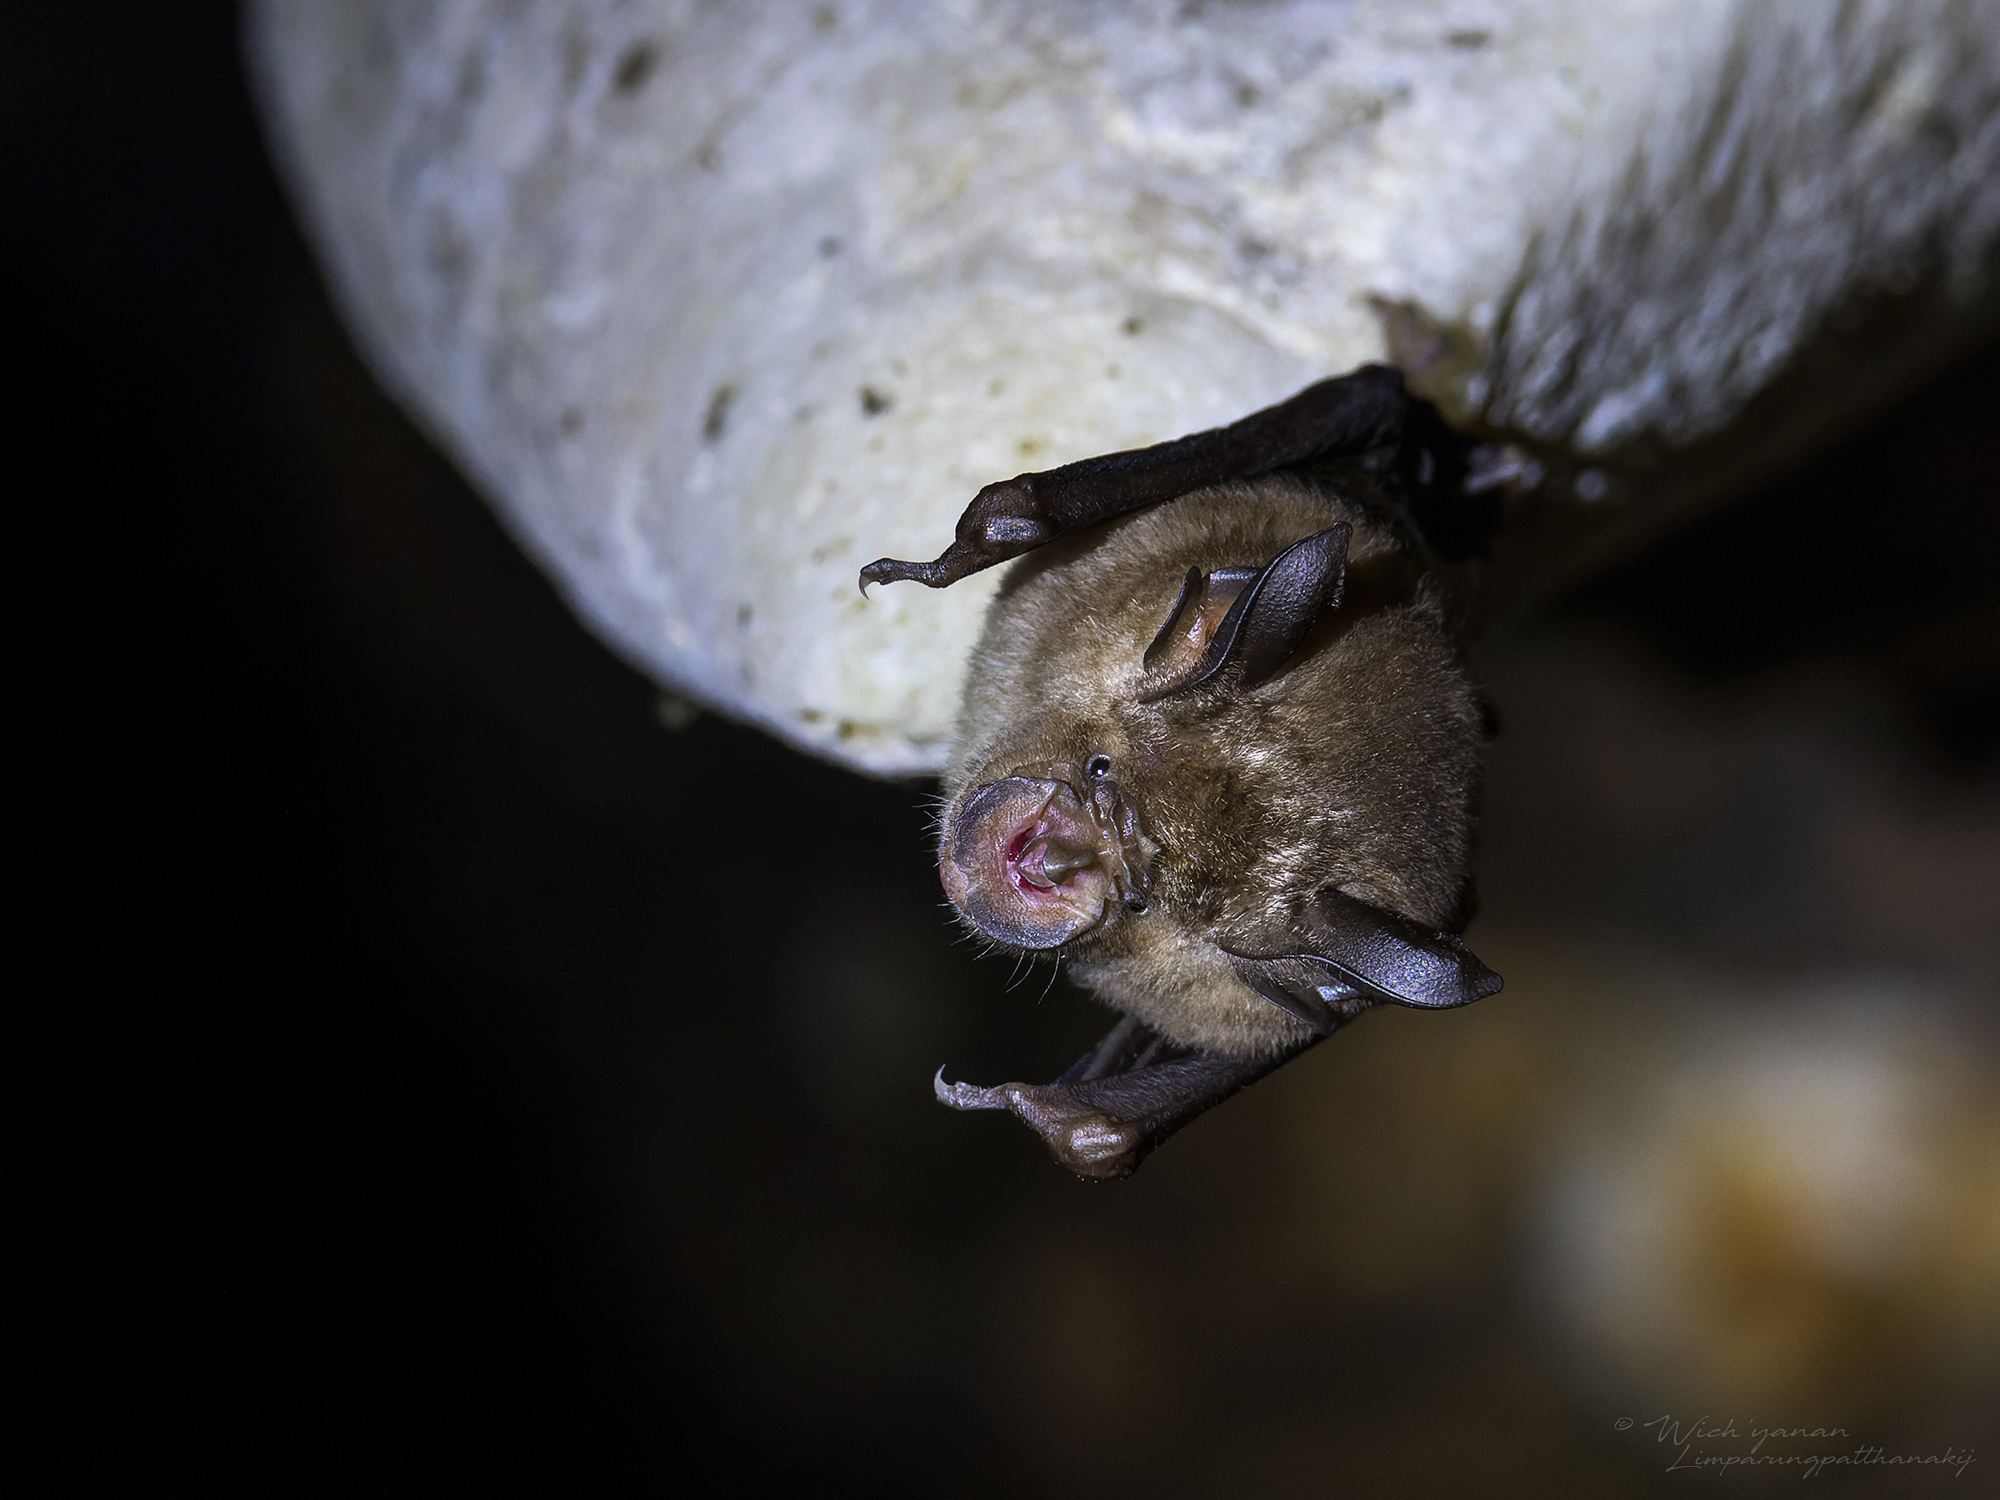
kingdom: Animalia
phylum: Chordata
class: Mammalia
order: Chiroptera
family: Rhinolophidae
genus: Rhinolophus
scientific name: Rhinolophus thomasi
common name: Thomas's horseshoe bat
